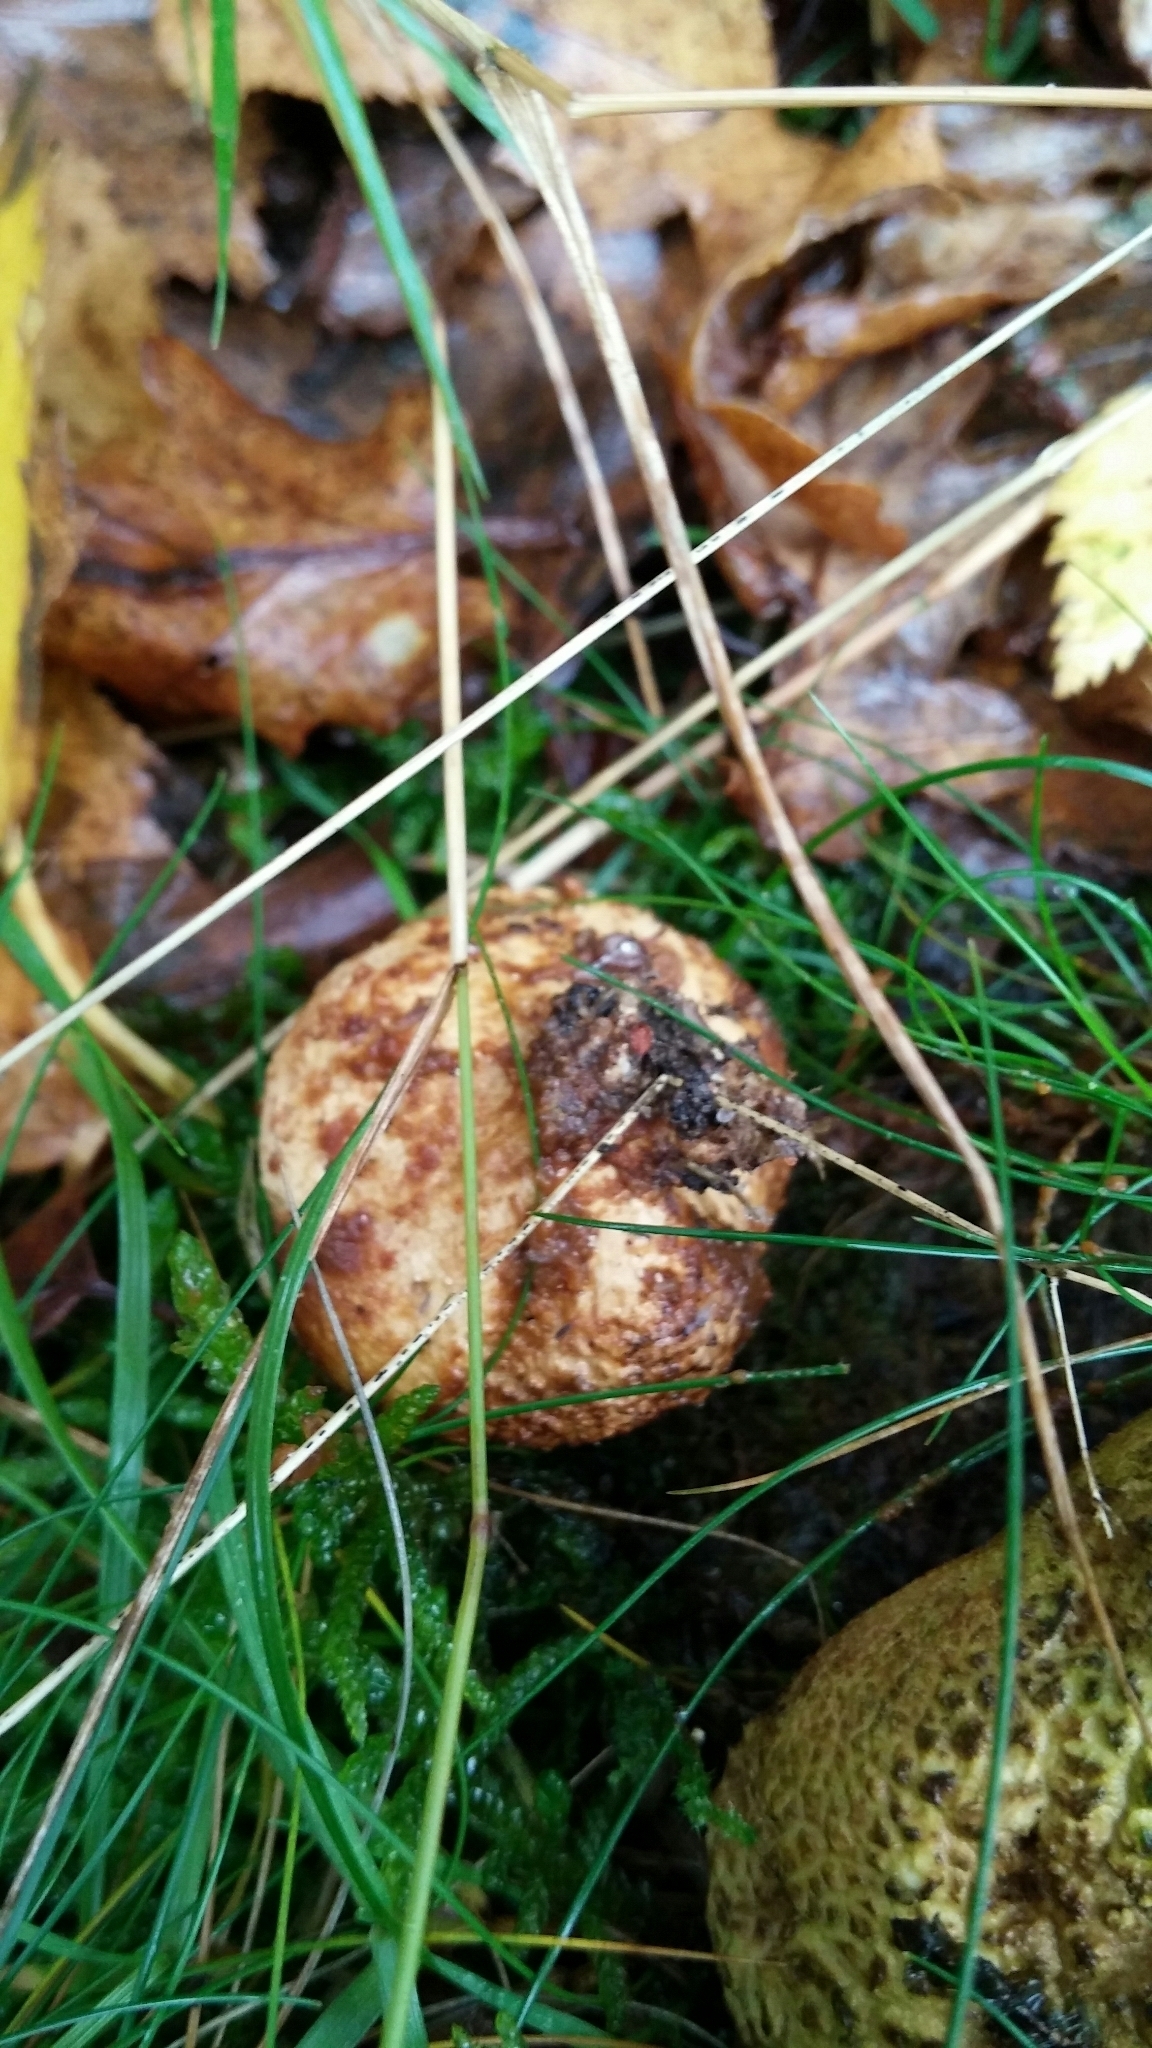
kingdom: Fungi
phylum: Basidiomycota
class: Agaricomycetes
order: Boletales
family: Sclerodermataceae
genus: Scleroderma
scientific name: Scleroderma citrinum
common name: Common earthball
